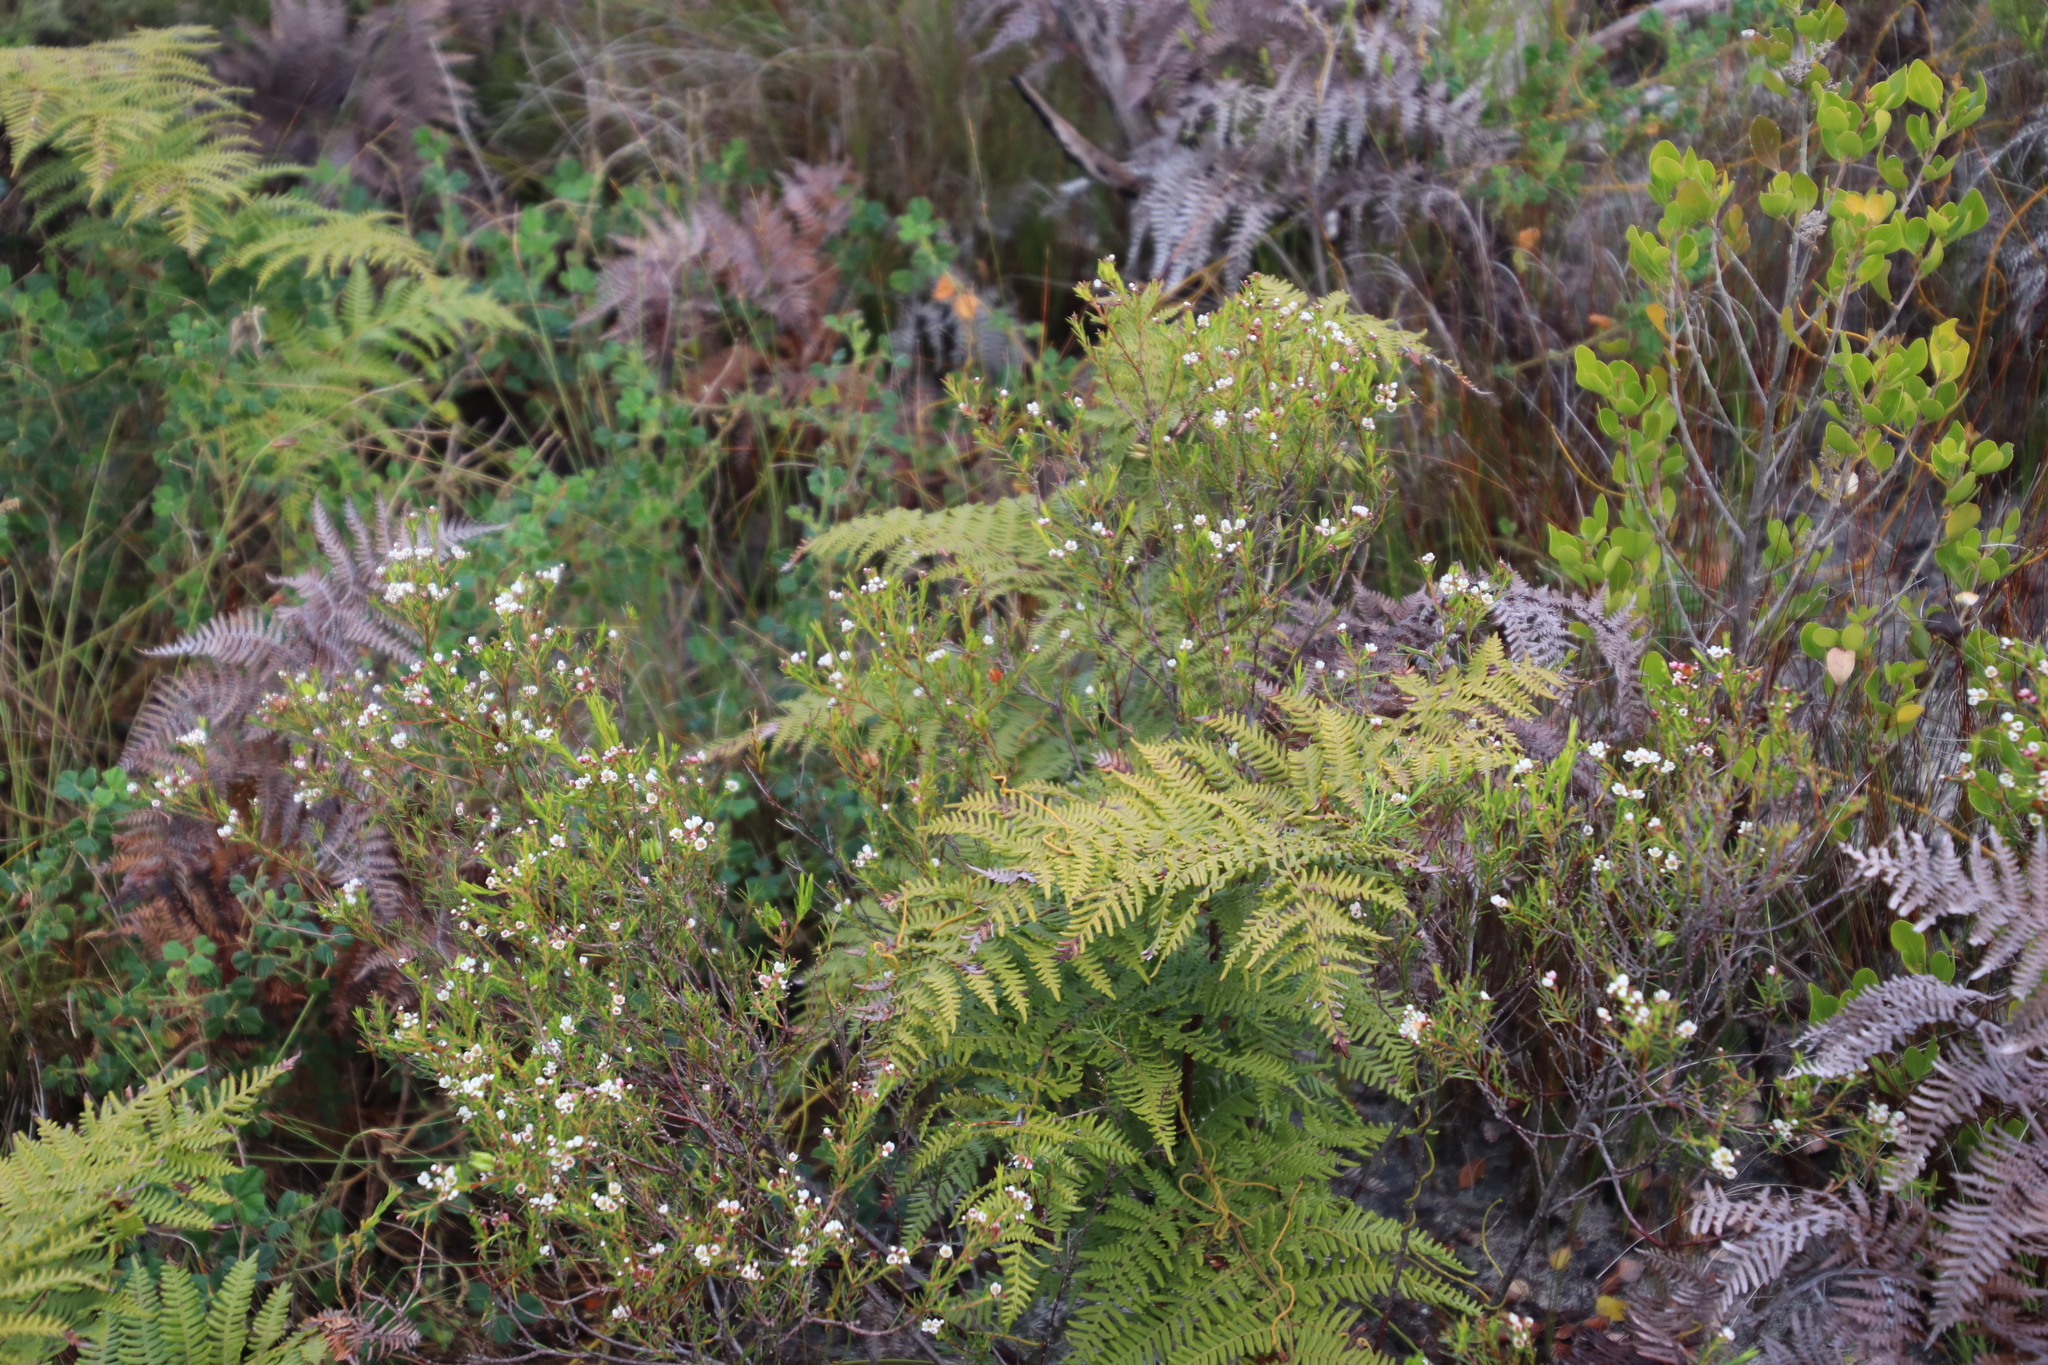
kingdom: Plantae
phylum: Tracheophyta
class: Magnoliopsida
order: Sapindales
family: Rutaceae
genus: Diosma
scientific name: Diosma hirsuta
